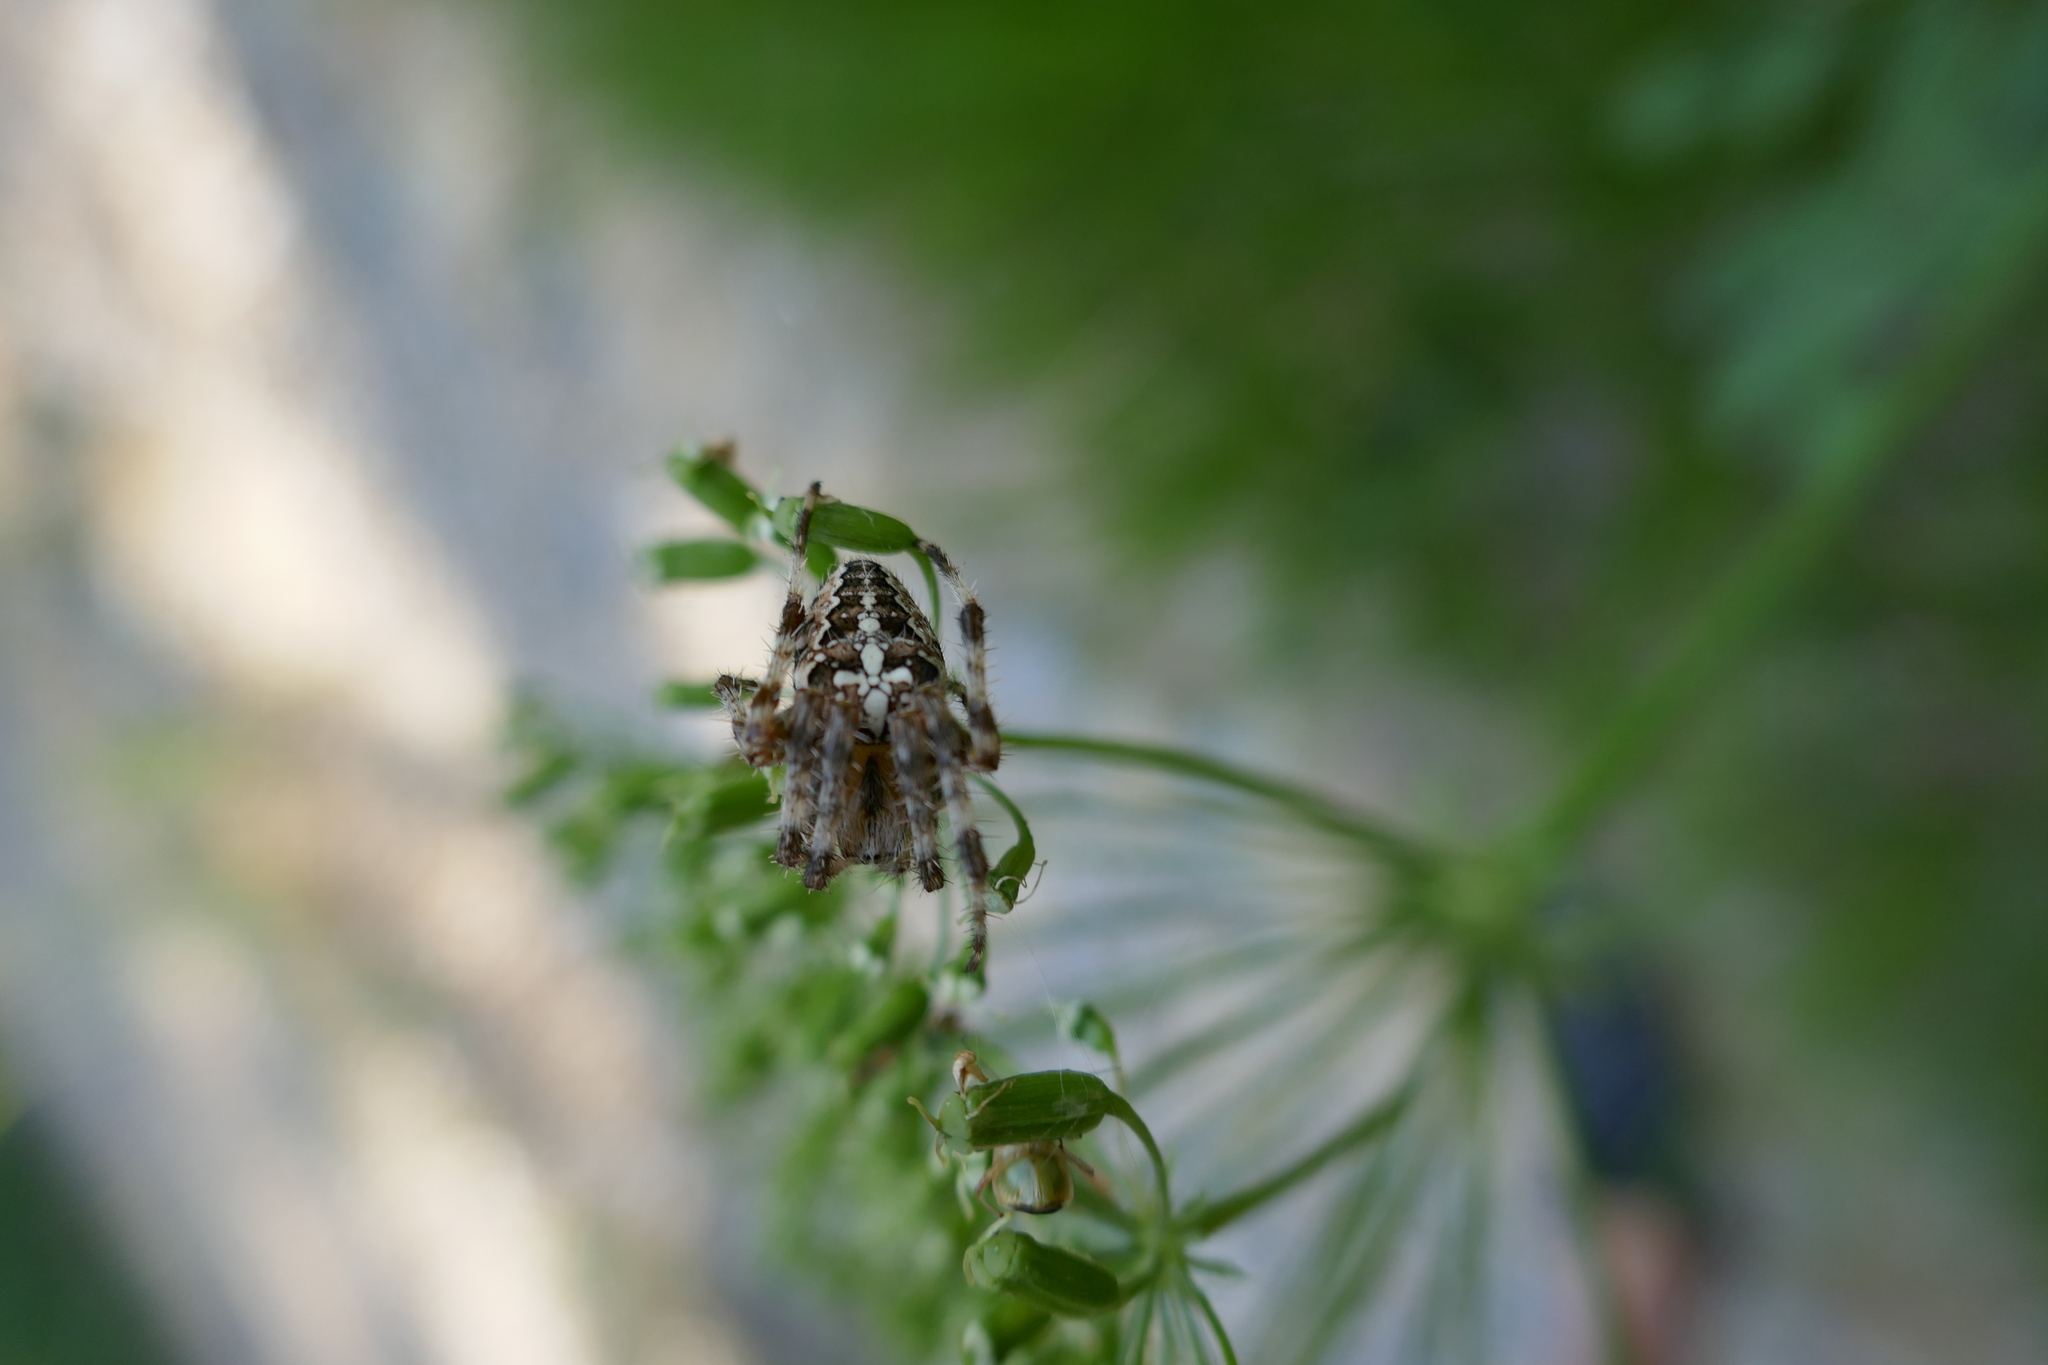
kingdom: Animalia
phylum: Arthropoda
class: Arachnida
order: Araneae
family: Araneidae
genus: Araneus
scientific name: Araneus diadematus
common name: Cross orbweaver
